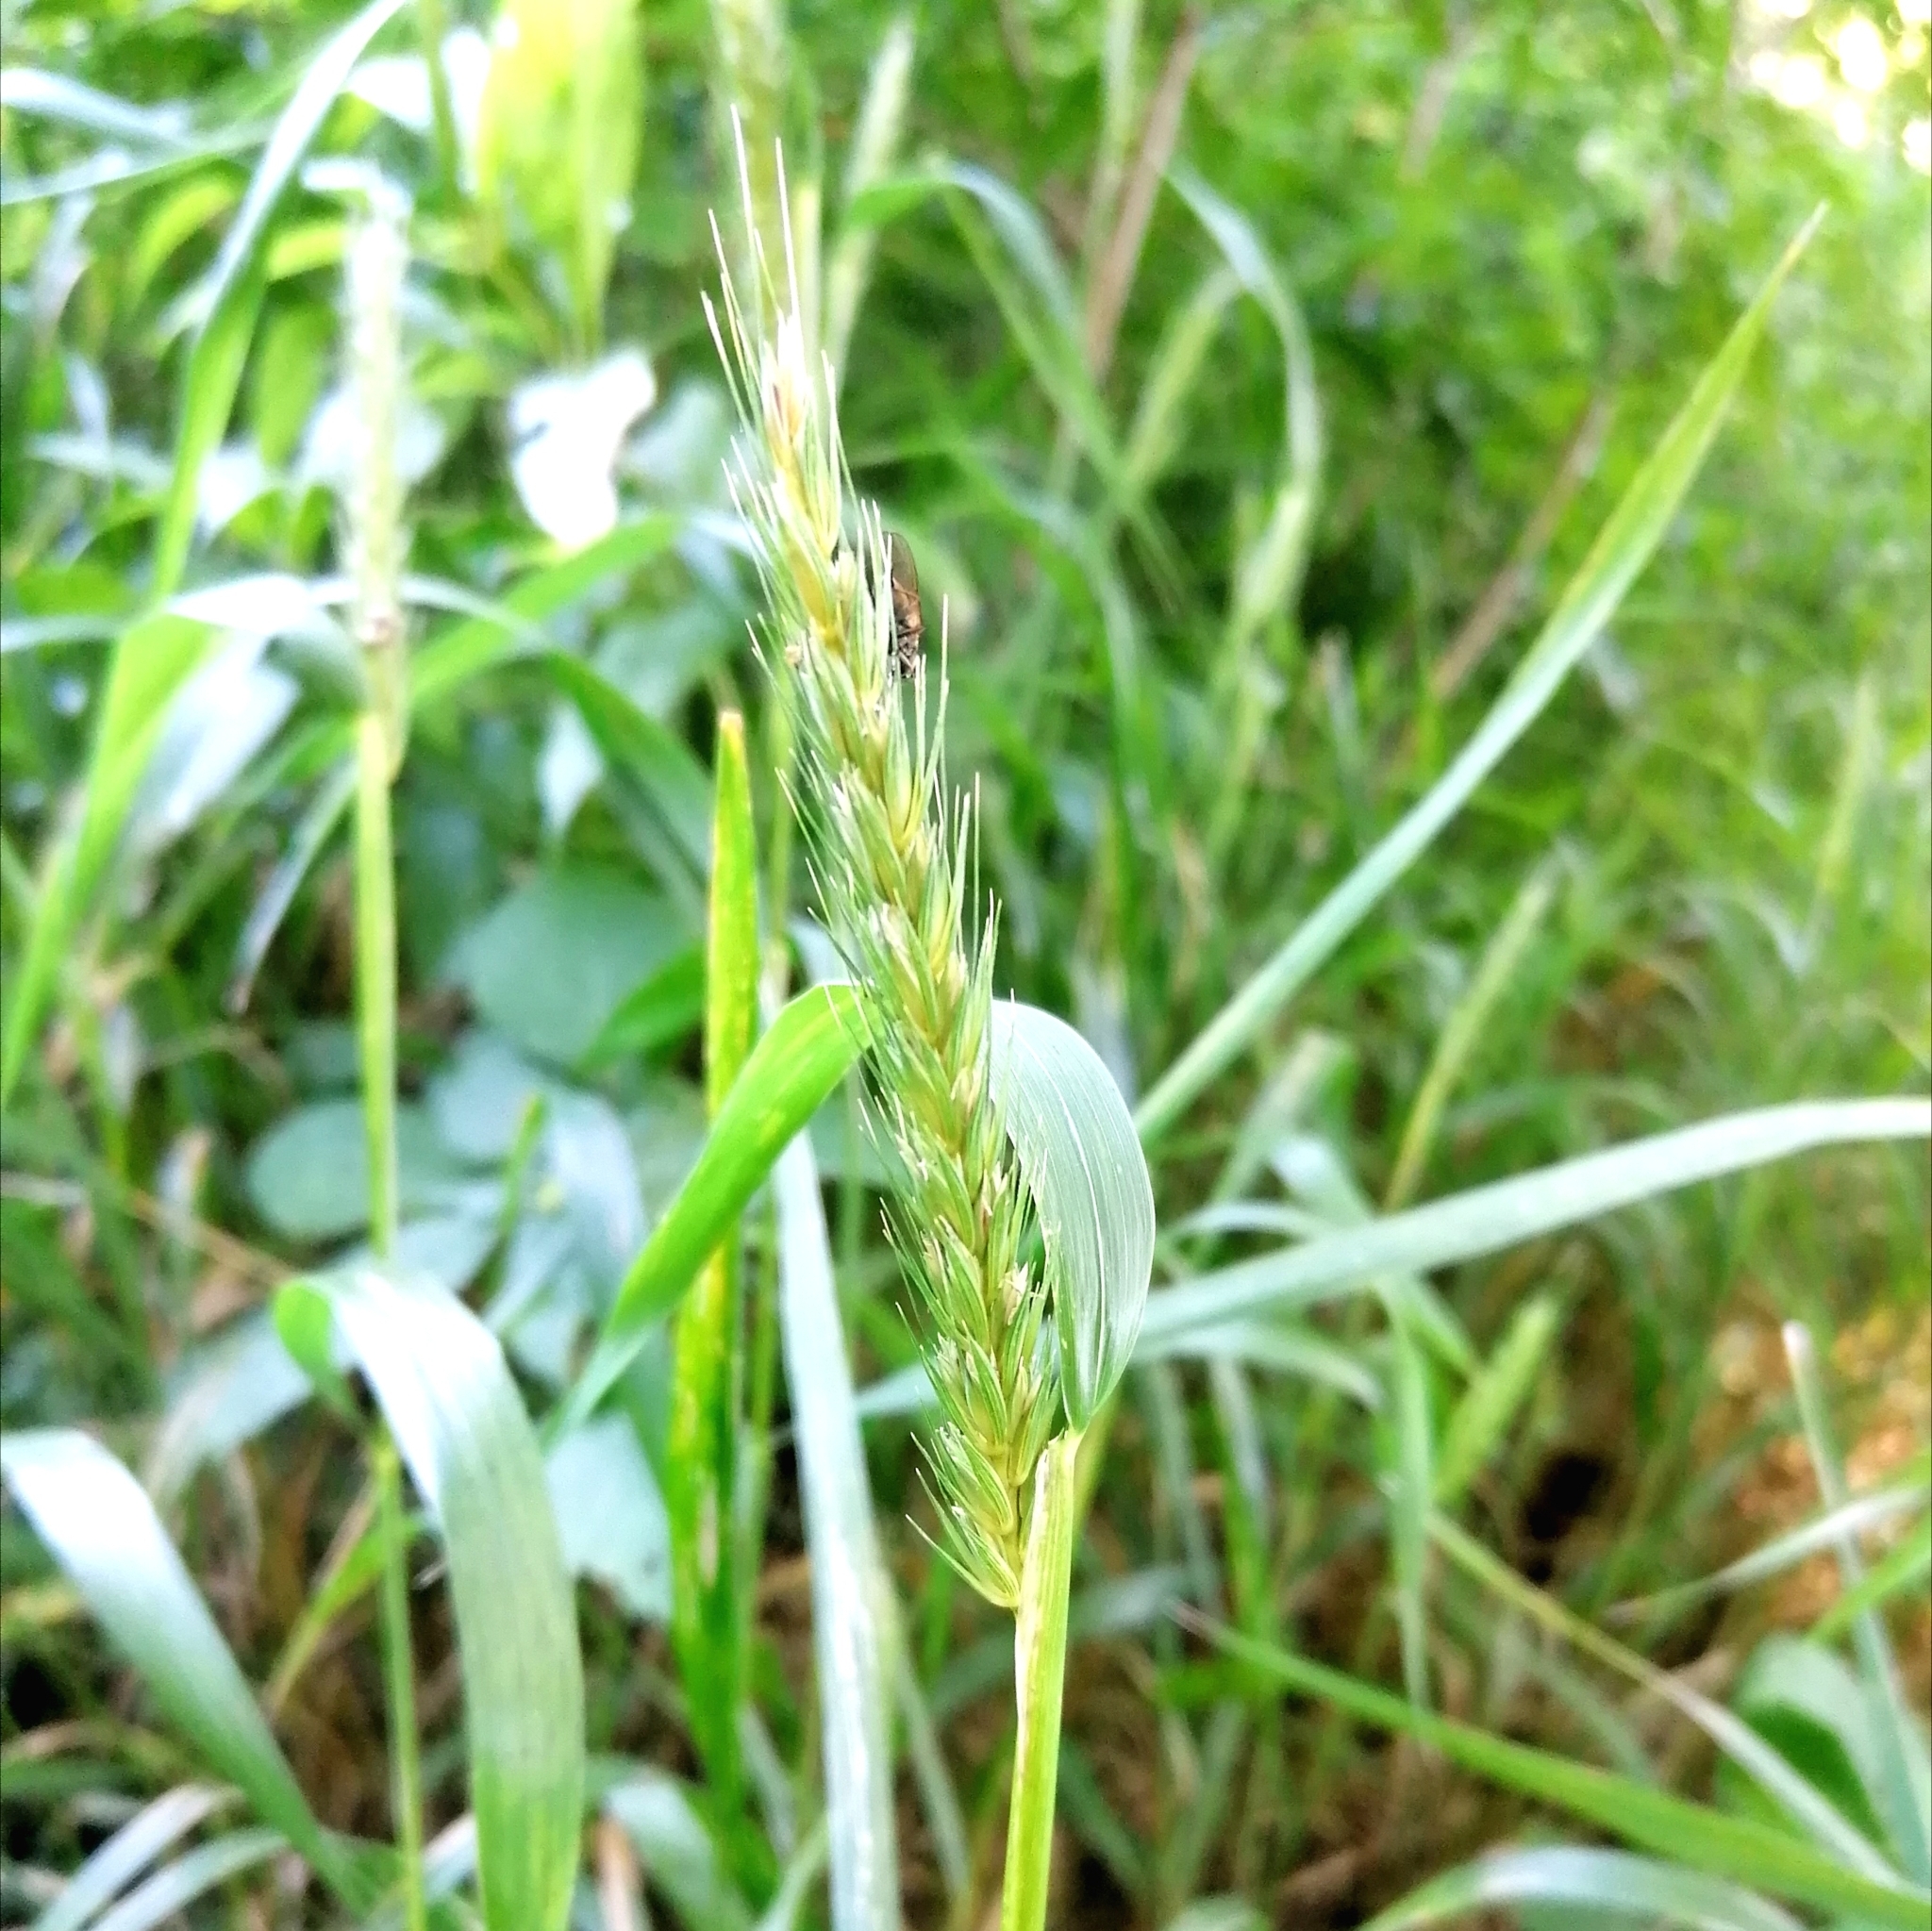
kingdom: Plantae
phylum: Tracheophyta
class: Liliopsida
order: Poales
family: Poaceae
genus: Elymus
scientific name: Elymus virginicus
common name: Common eastern wildrye
